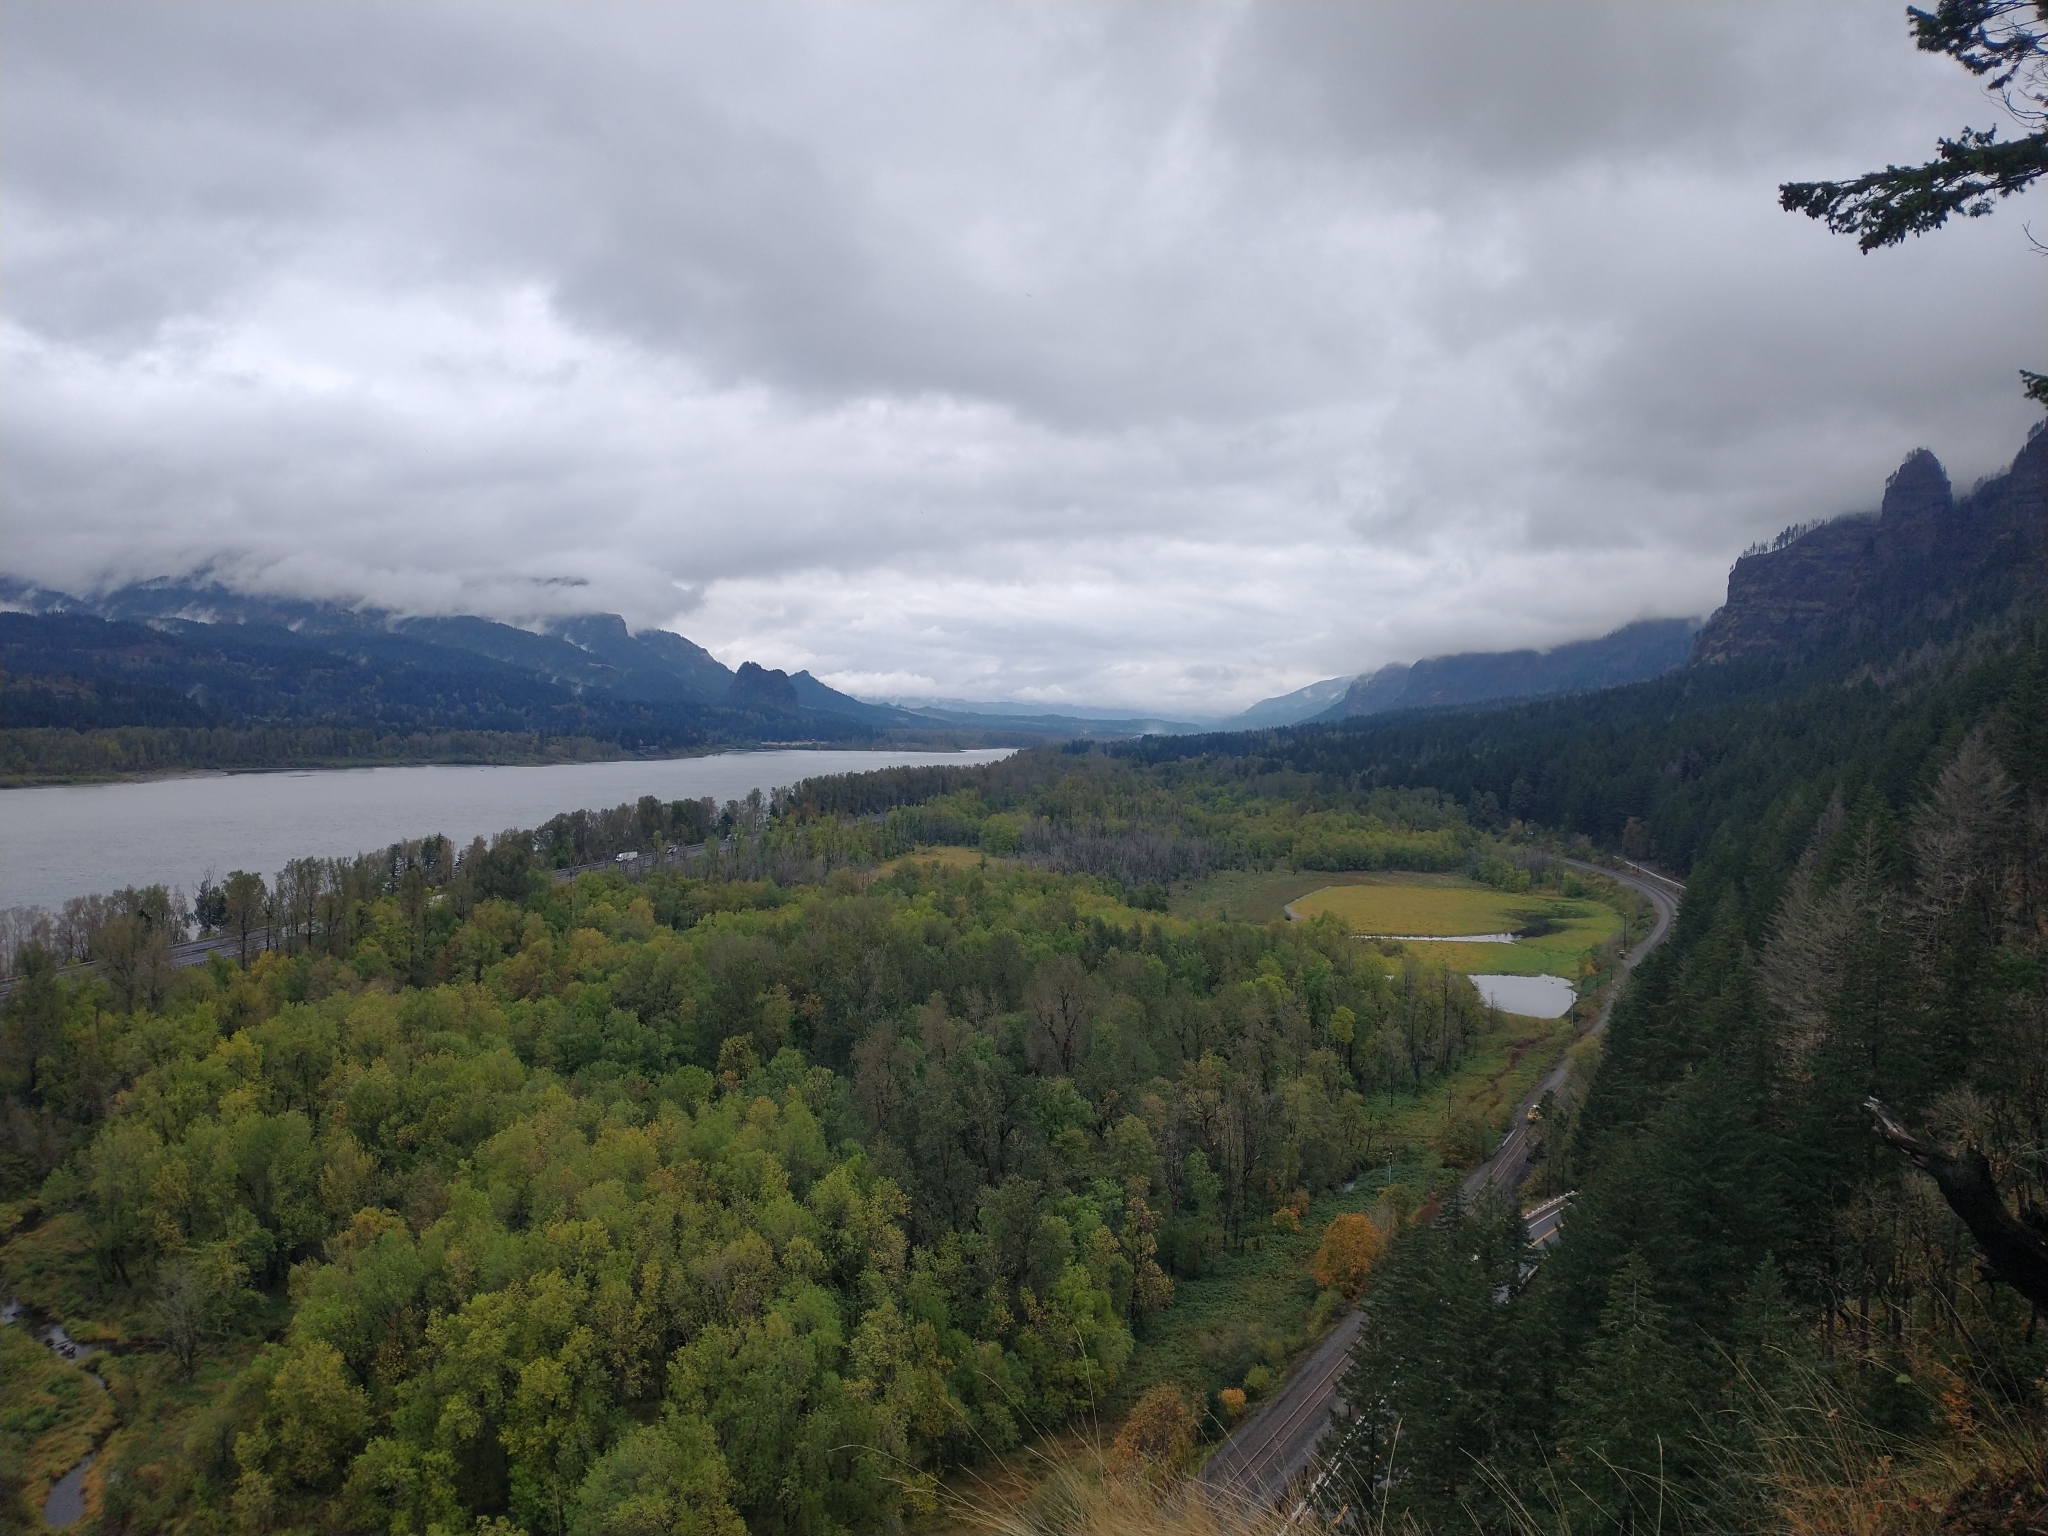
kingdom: Plantae
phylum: Tracheophyta
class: Magnoliopsida
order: Malpighiales
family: Salicaceae
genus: Populus
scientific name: Populus trichocarpa
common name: Black cottonwood
